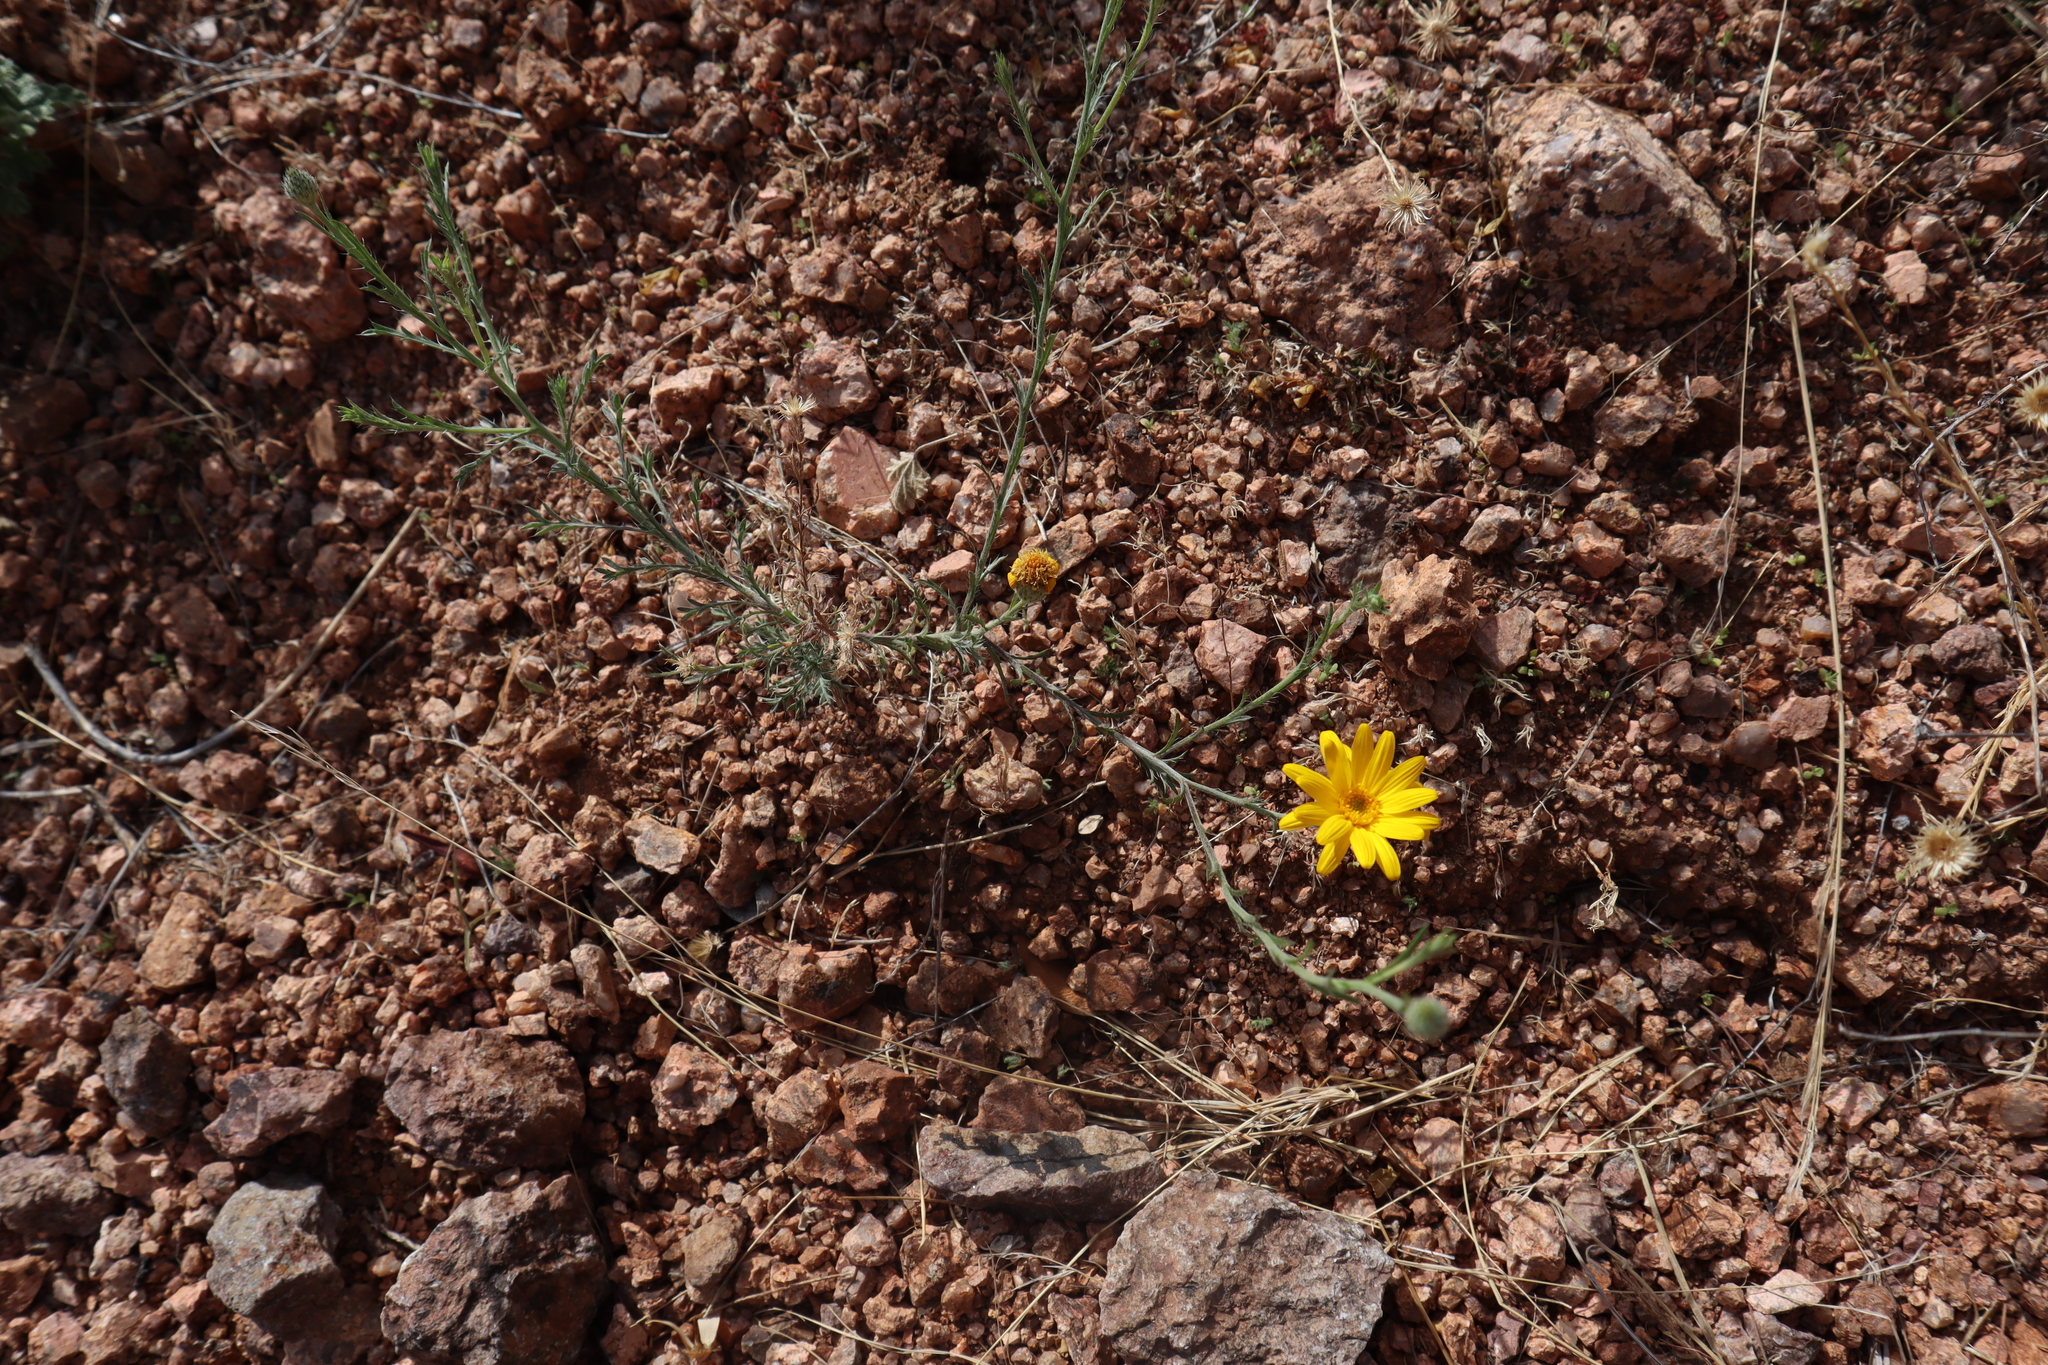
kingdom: Plantae
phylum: Tracheophyta
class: Magnoliopsida
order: Asterales
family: Asteraceae
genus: Xanthisma
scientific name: Xanthisma spinulosum
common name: Spiny goldenweed
